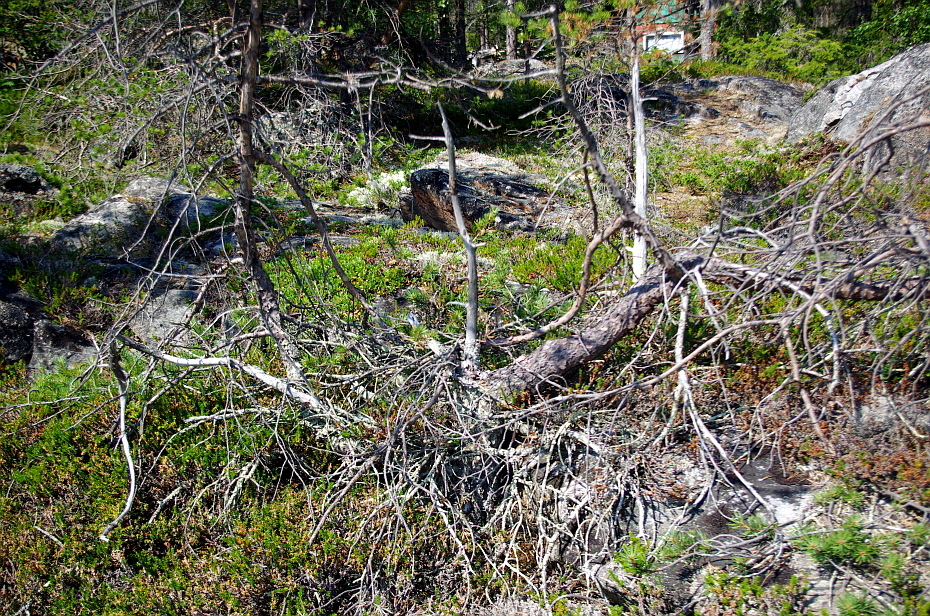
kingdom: Plantae
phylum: Tracheophyta
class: Pinopsida
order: Pinales
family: Pinaceae
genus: Pinus
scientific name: Pinus sylvestris
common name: Scots pine
